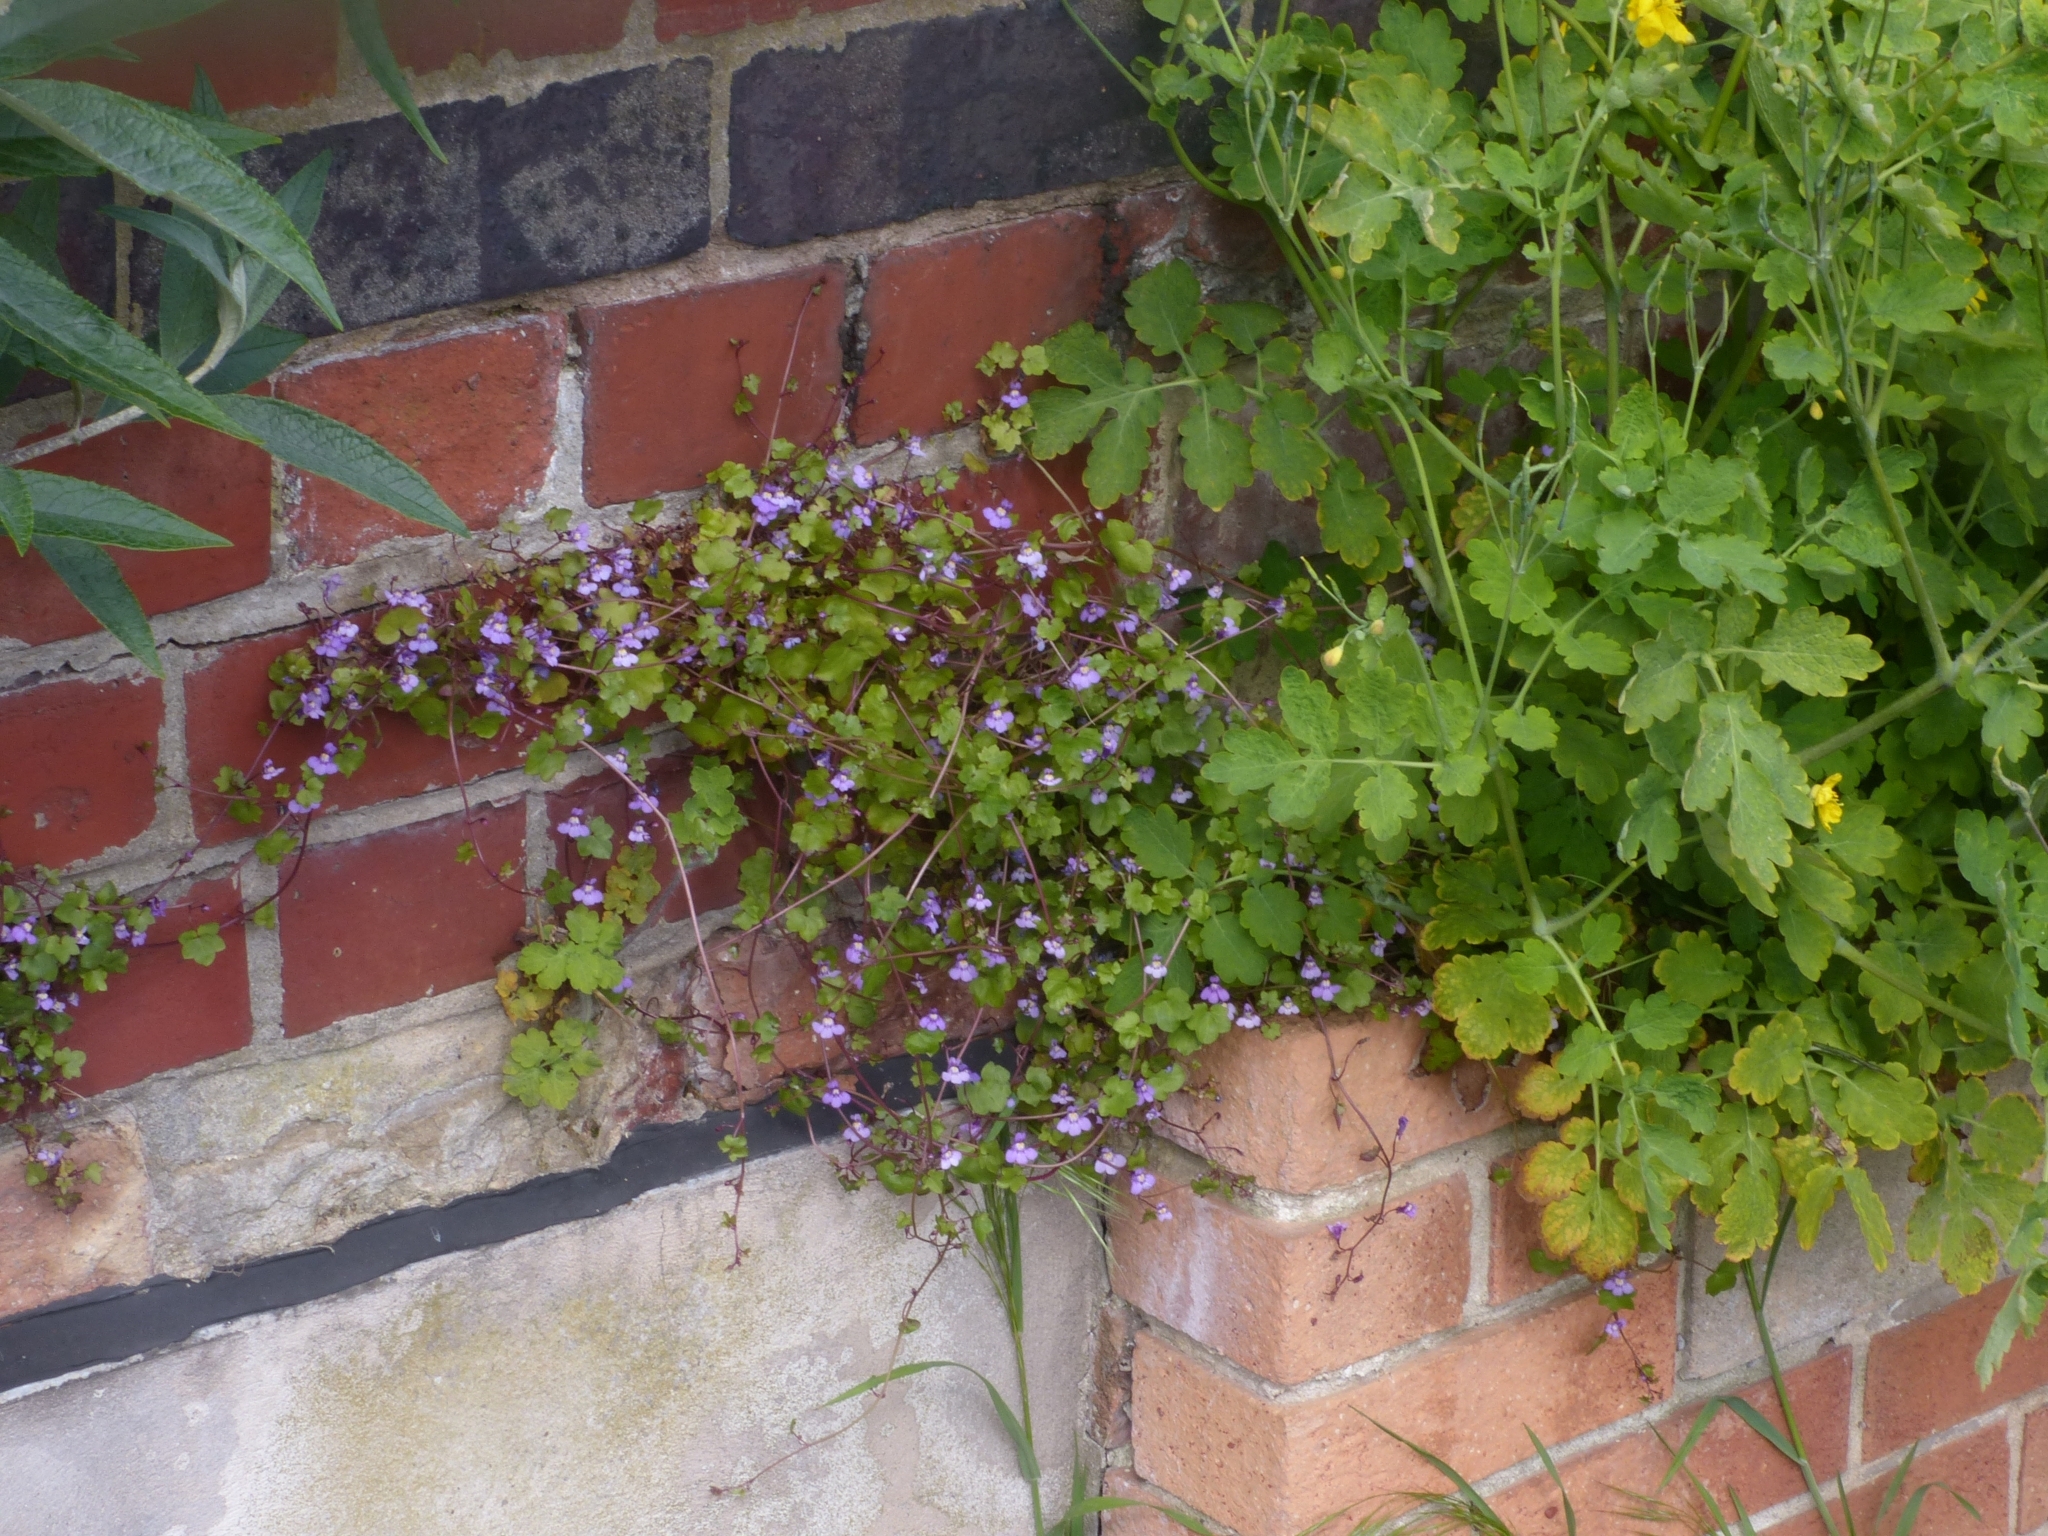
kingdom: Plantae
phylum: Tracheophyta
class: Magnoliopsida
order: Lamiales
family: Plantaginaceae
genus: Cymbalaria
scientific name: Cymbalaria muralis
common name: Ivy-leaved toadflax
